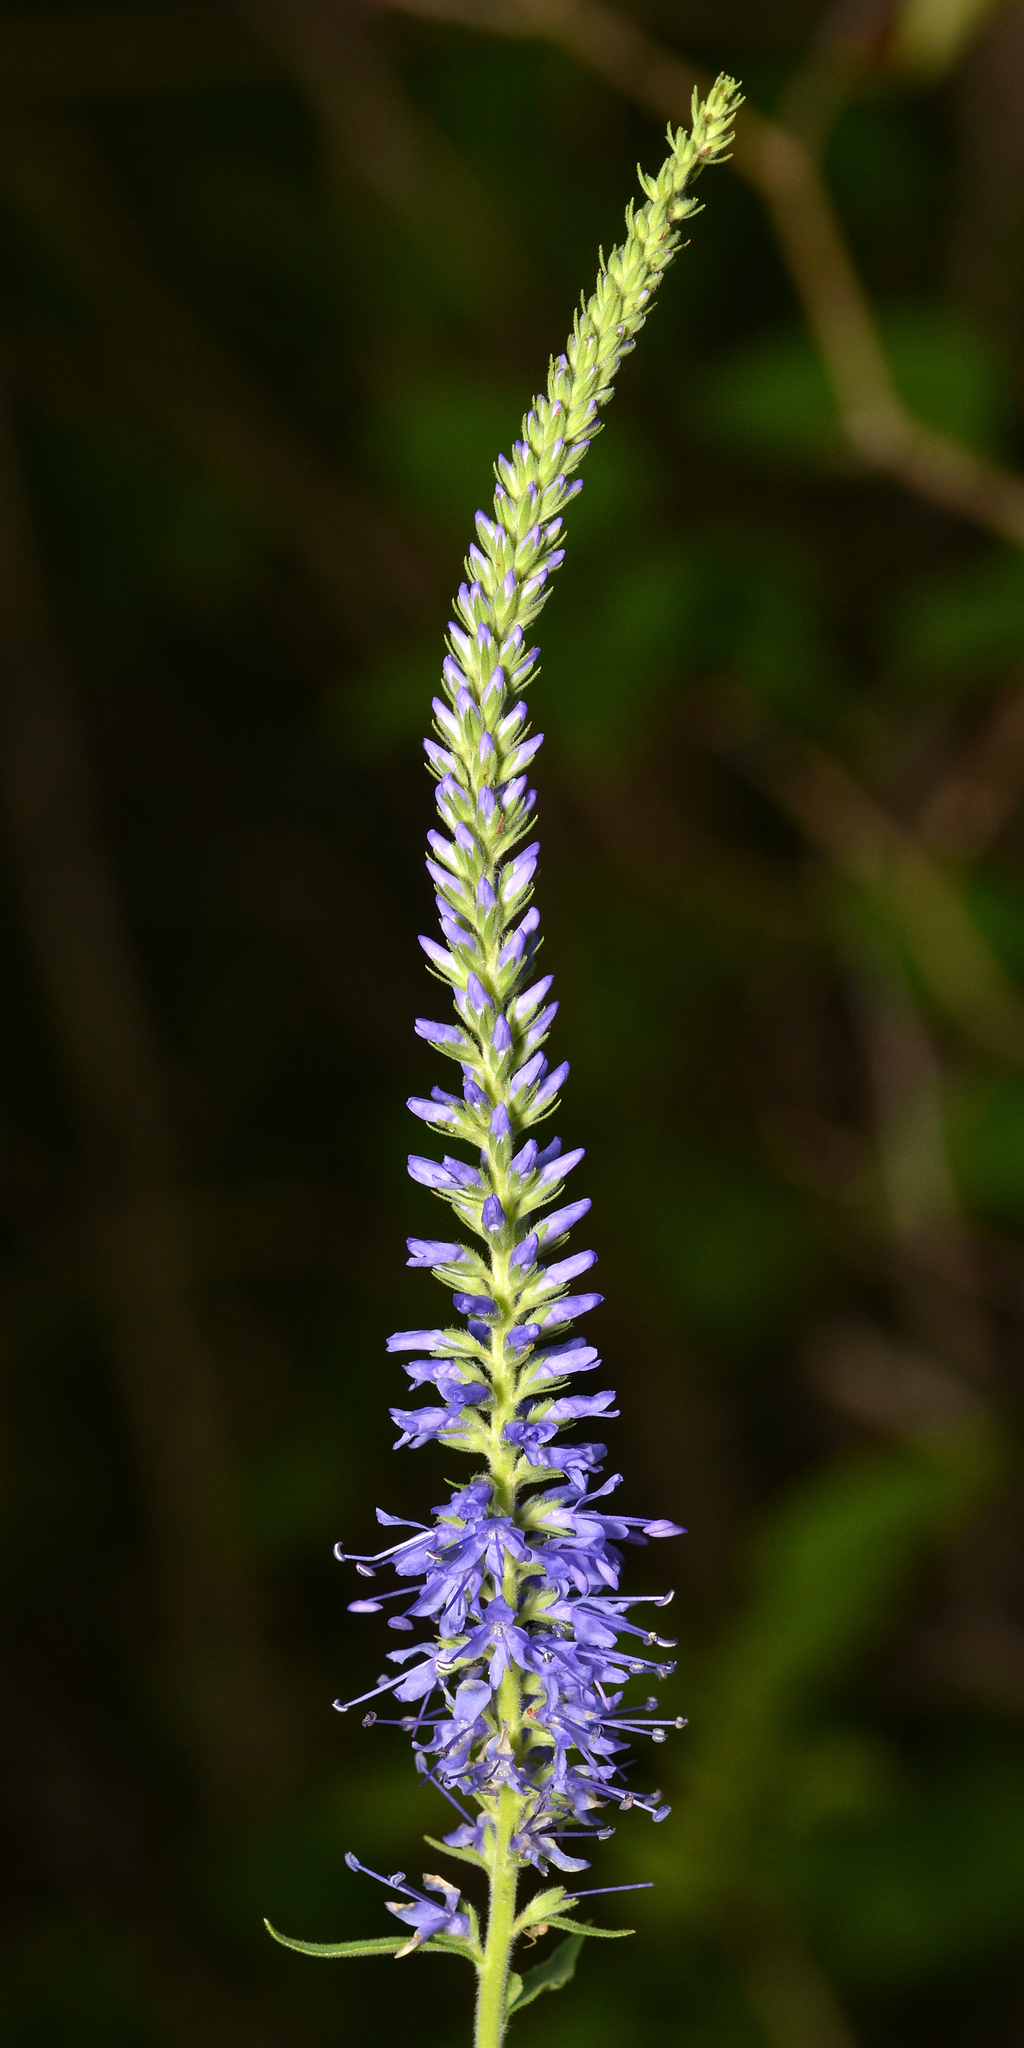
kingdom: Plantae
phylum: Tracheophyta
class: Magnoliopsida
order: Lamiales
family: Plantaginaceae
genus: Veronica
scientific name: Veronica spicata
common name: Spiked speedwell
